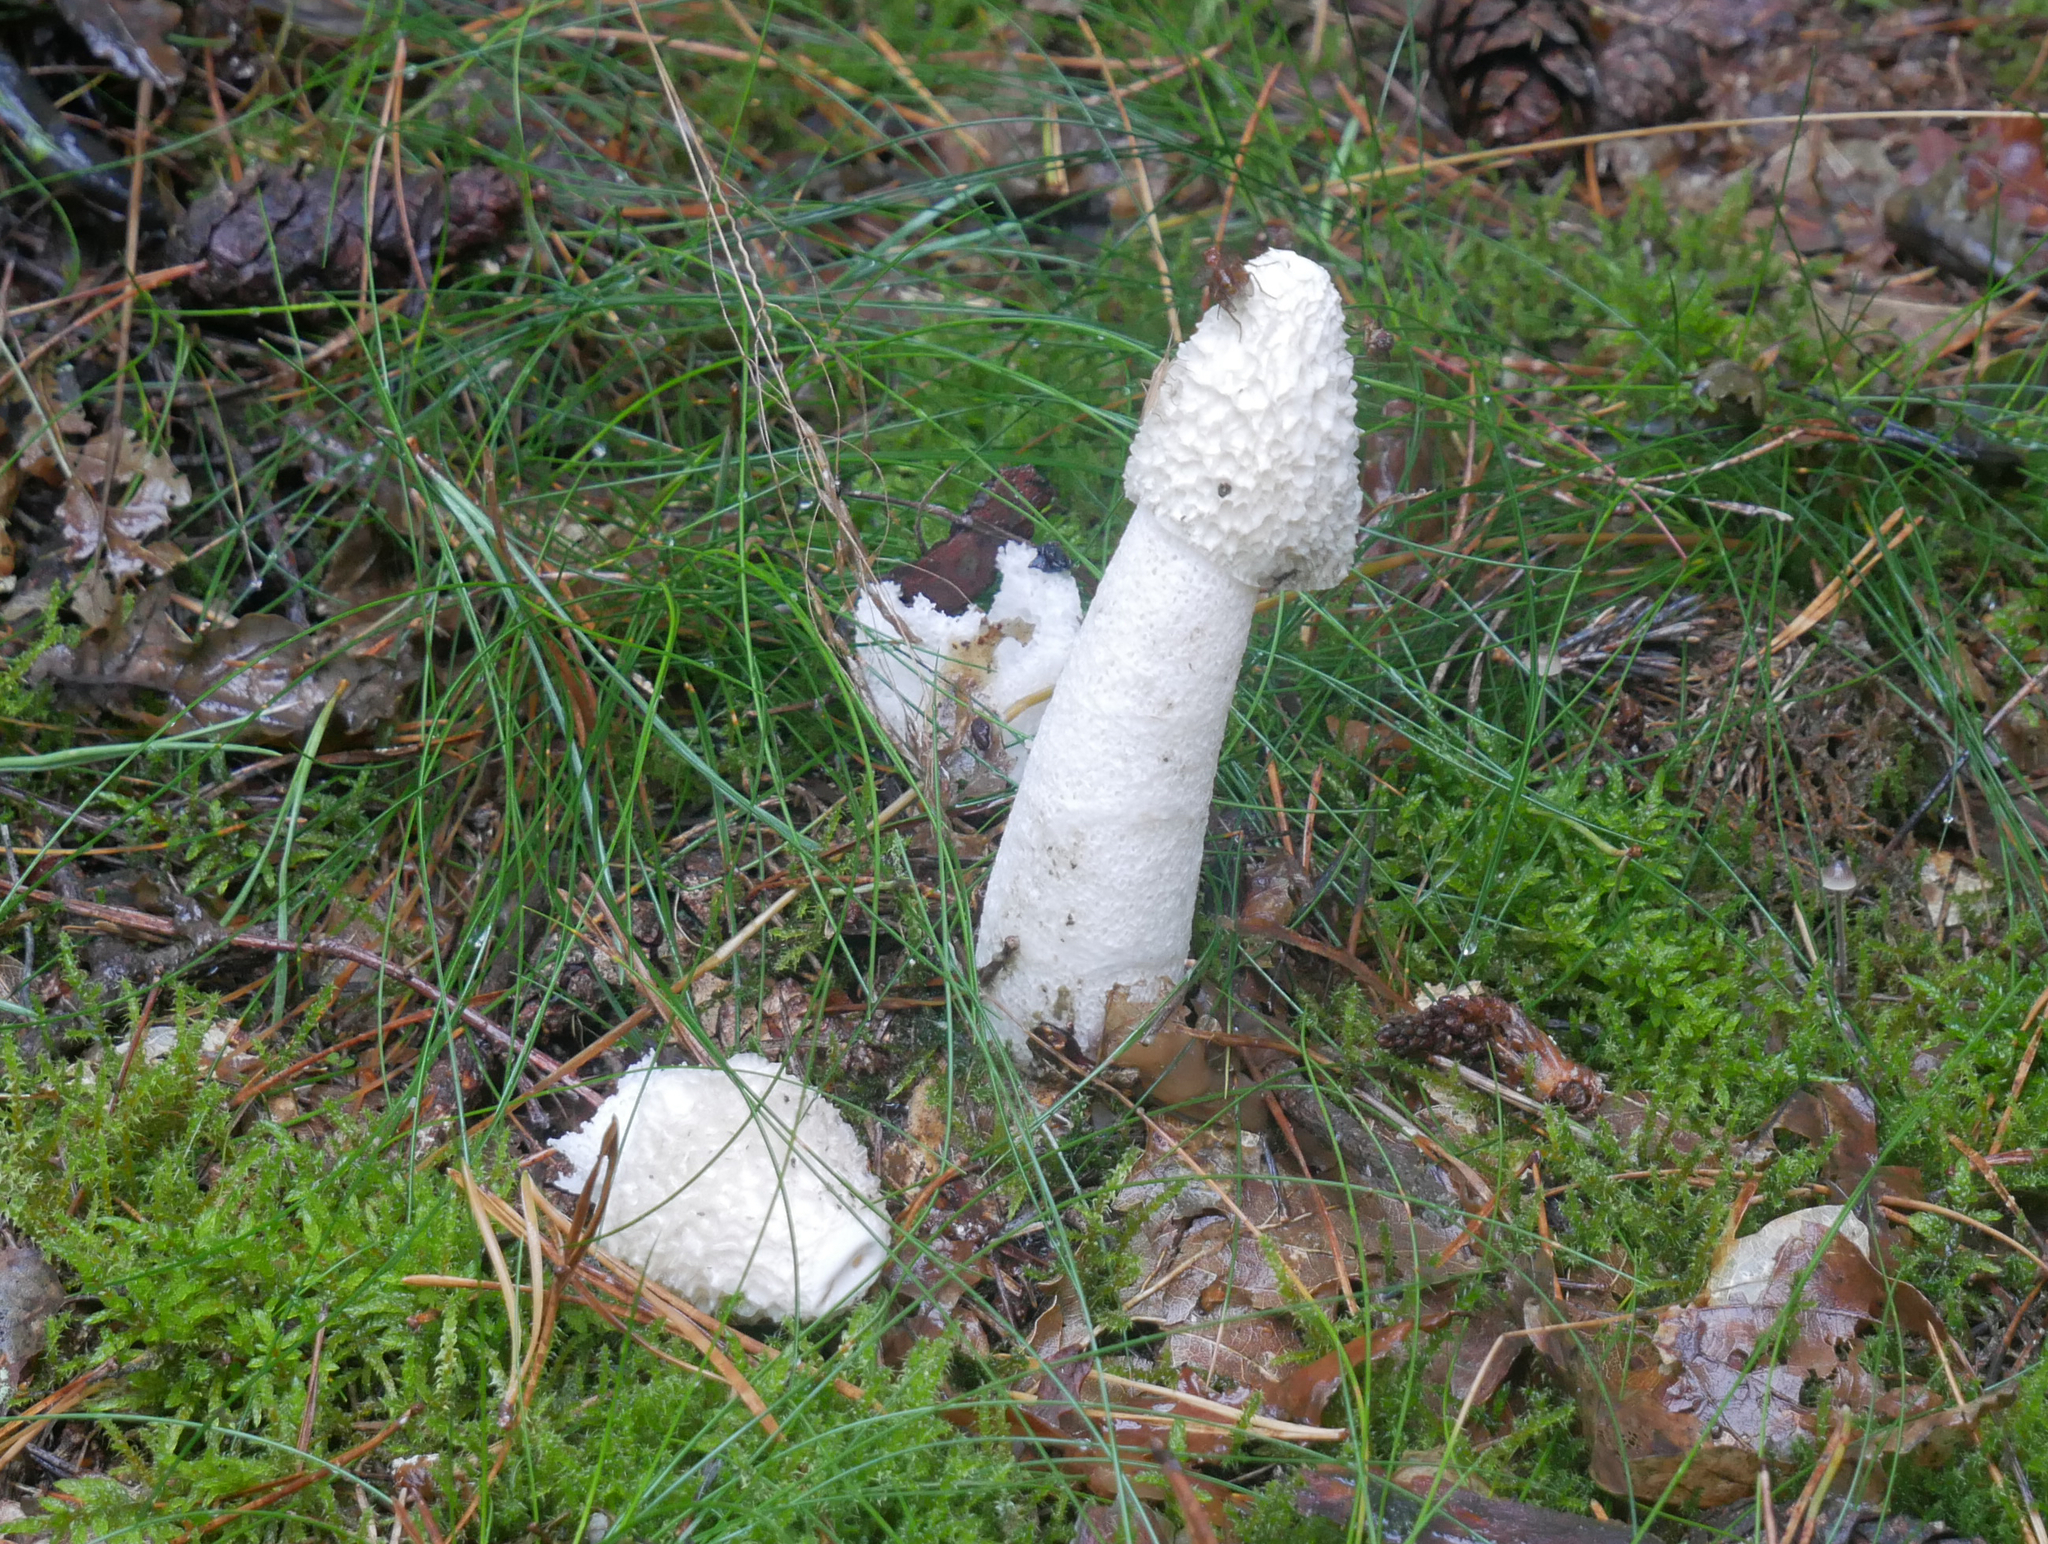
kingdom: Fungi
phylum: Basidiomycota
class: Agaricomycetes
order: Phallales
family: Phallaceae
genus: Phallus
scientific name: Phallus impudicus
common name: Common stinkhorn
